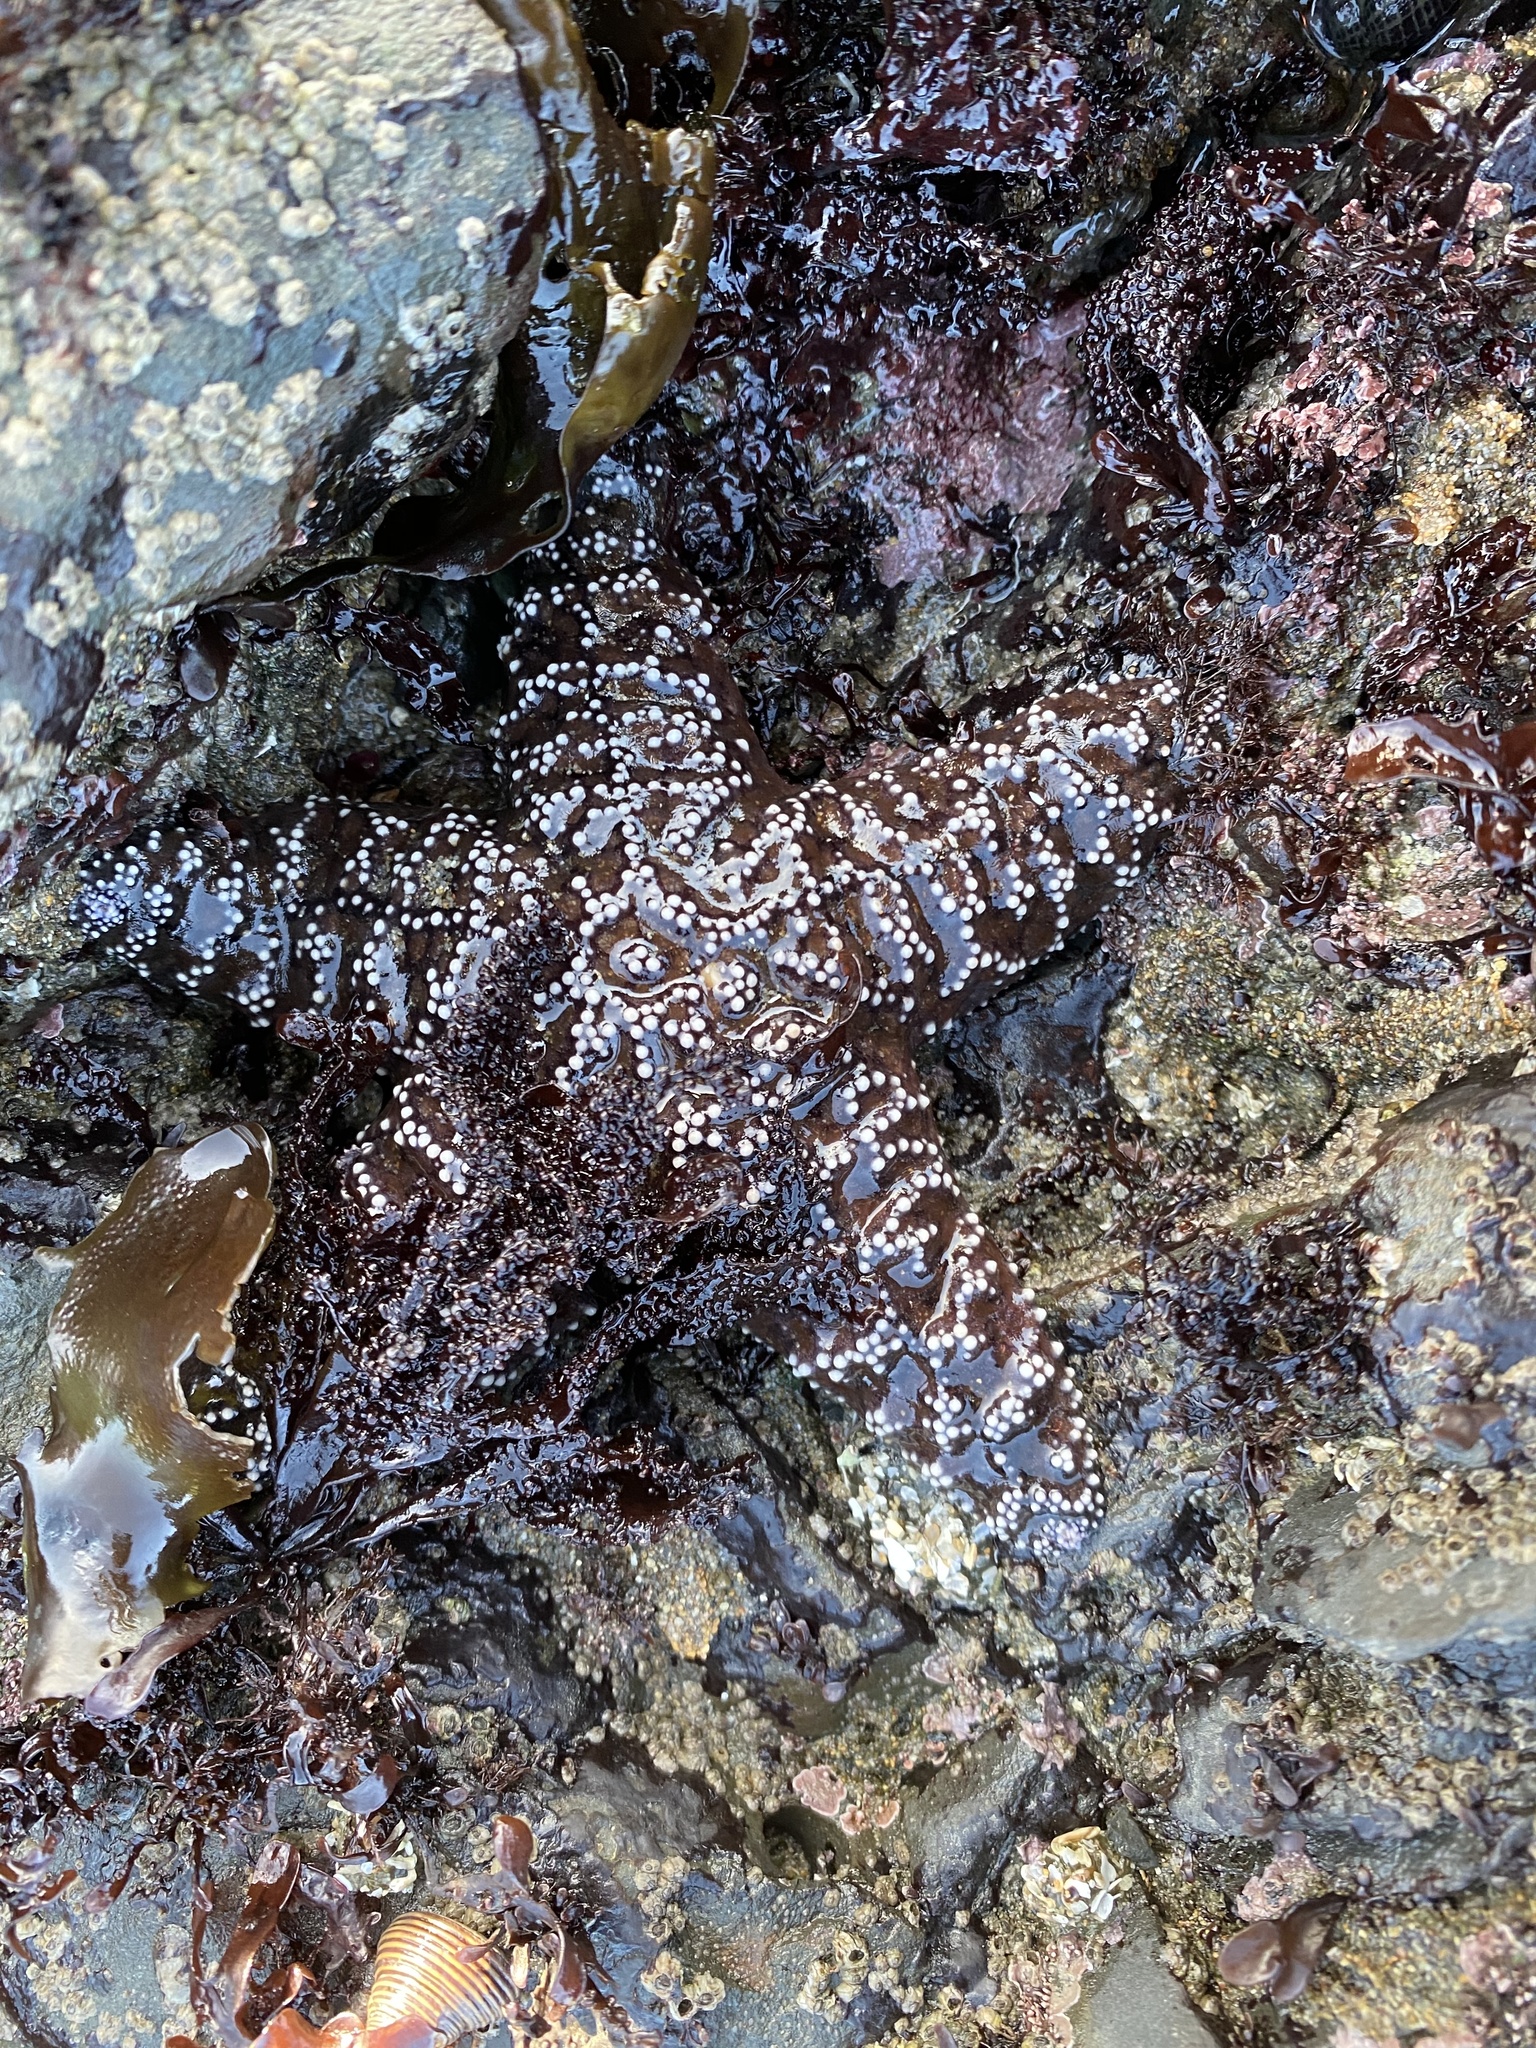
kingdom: Animalia
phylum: Echinodermata
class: Asteroidea
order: Forcipulatida
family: Asteriidae
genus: Pisaster
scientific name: Pisaster ochraceus
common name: Ochre stars
